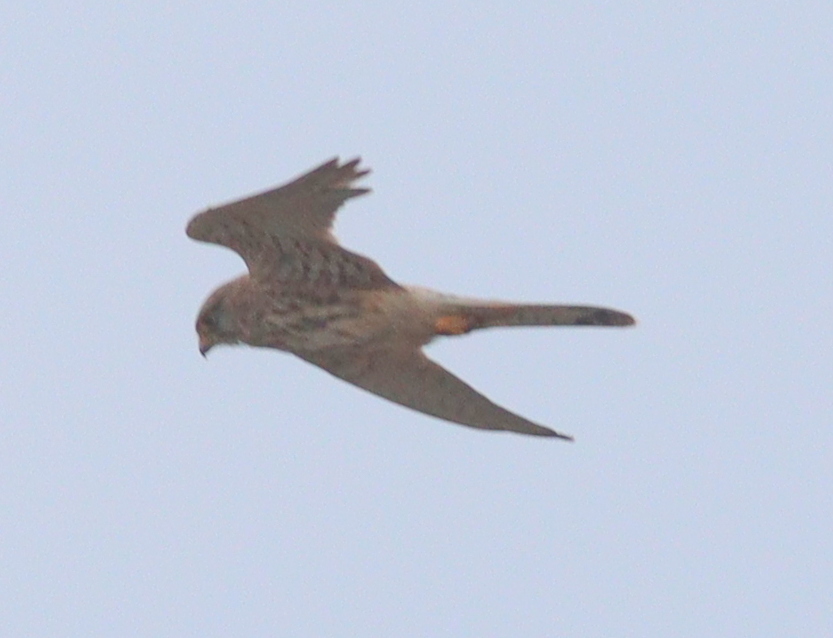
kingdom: Animalia
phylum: Chordata
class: Aves
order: Falconiformes
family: Falconidae
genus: Falco
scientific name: Falco tinnunculus
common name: Common kestrel
